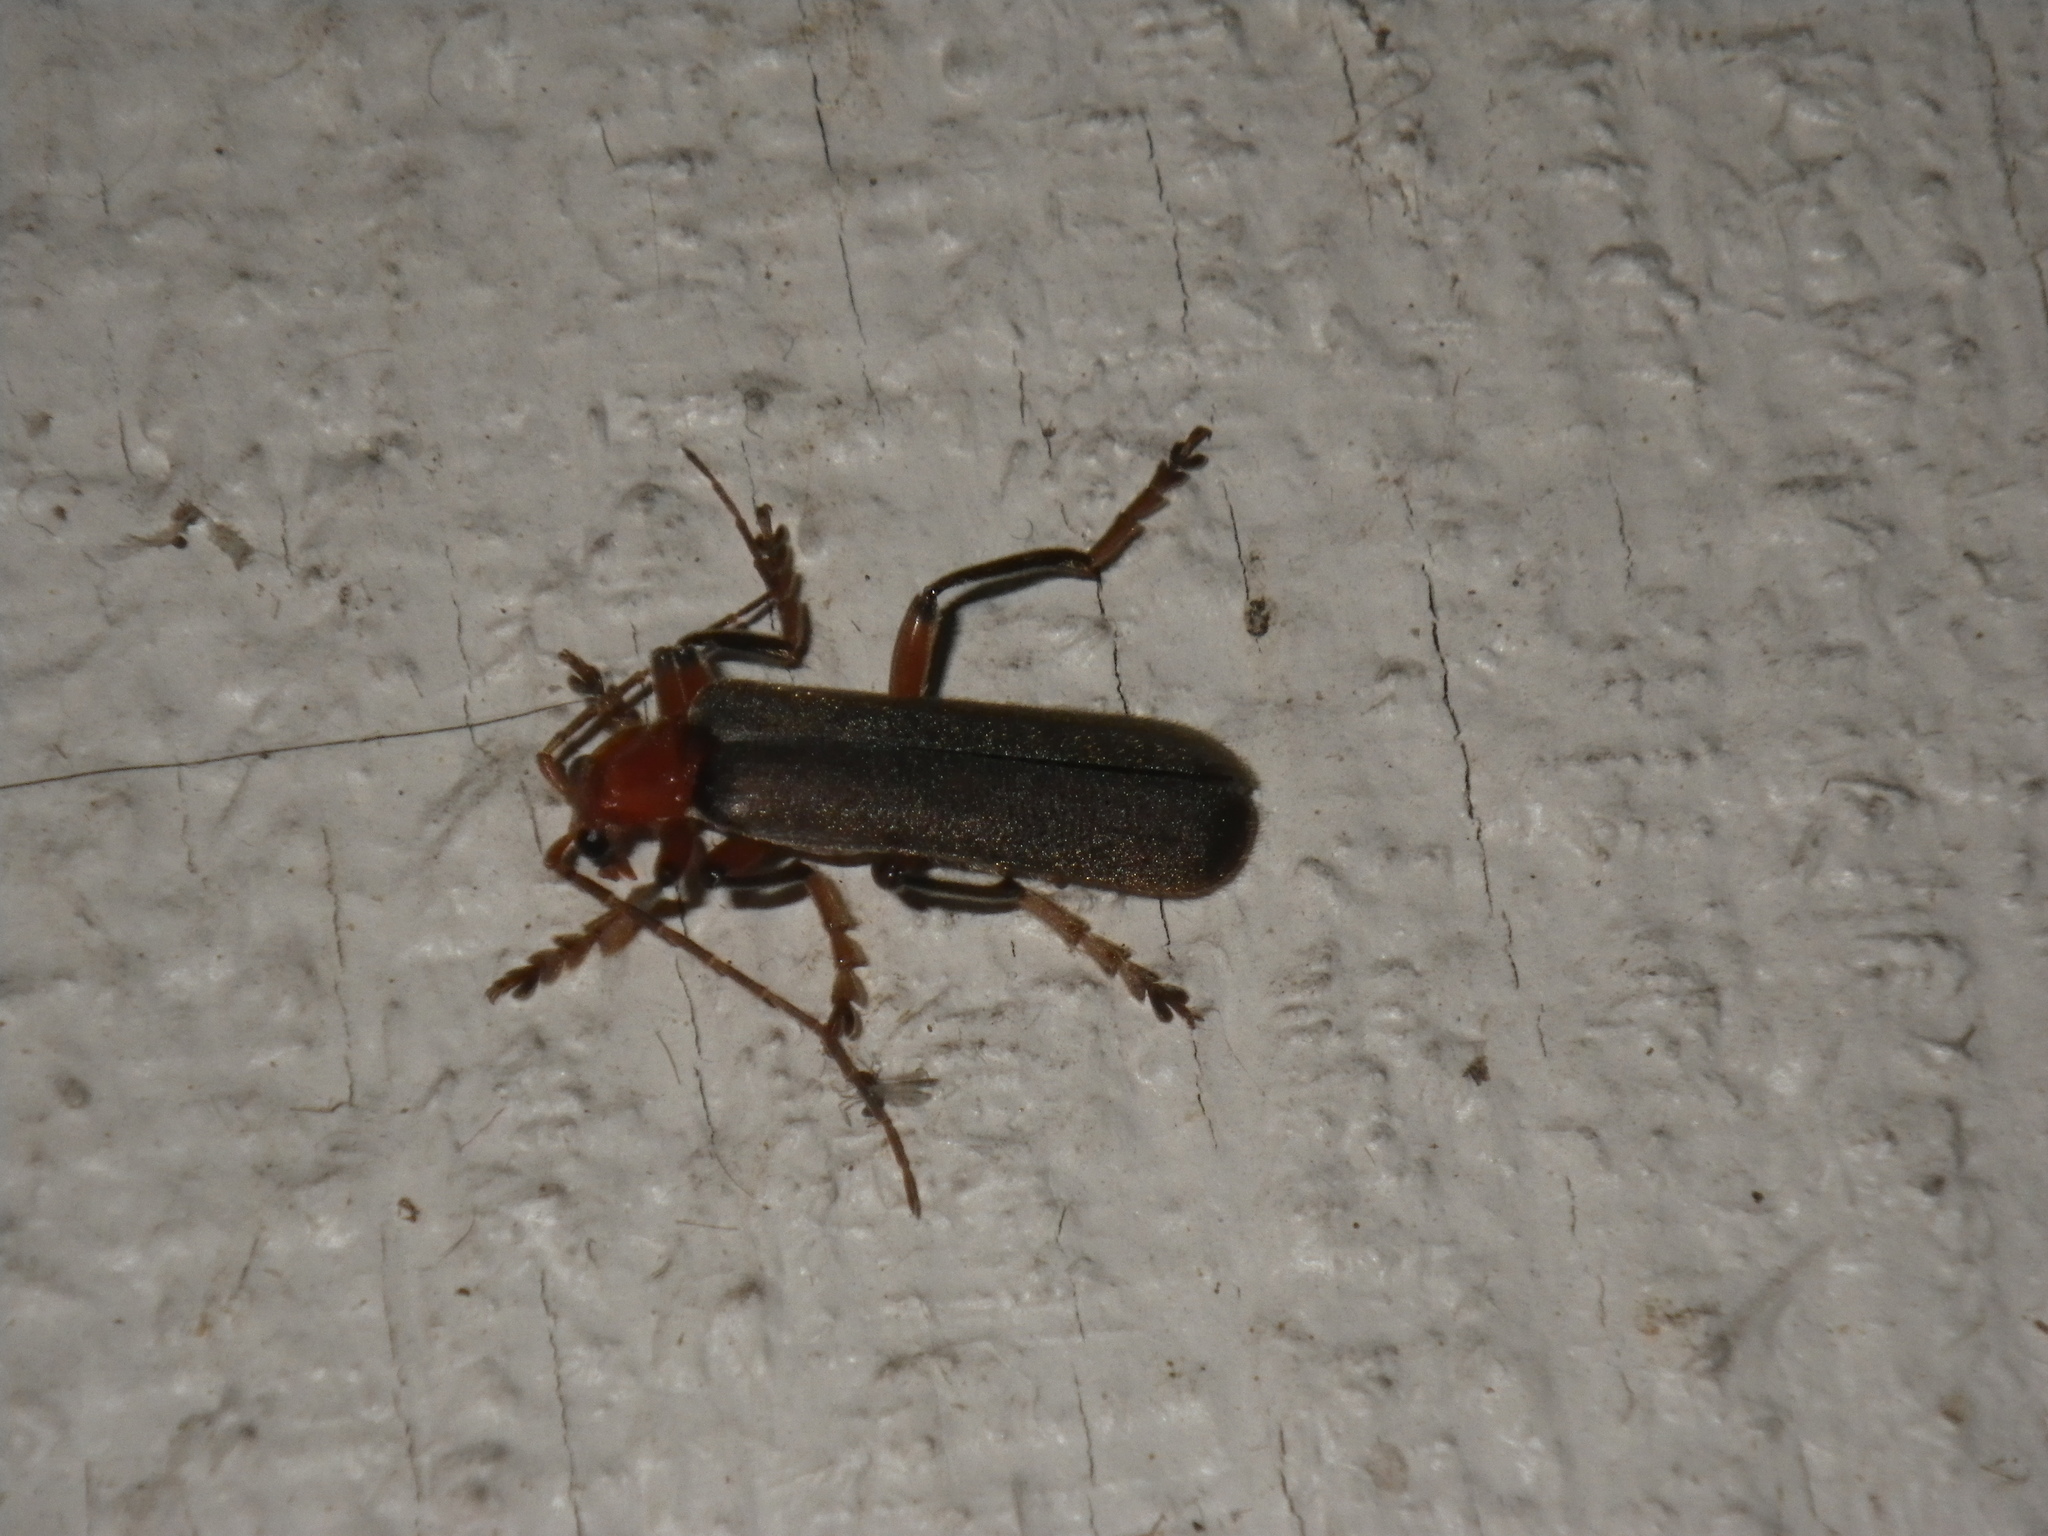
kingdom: Animalia
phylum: Arthropoda
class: Insecta
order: Coleoptera
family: Cantharidae
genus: Pacificanthia
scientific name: Pacificanthia consors
